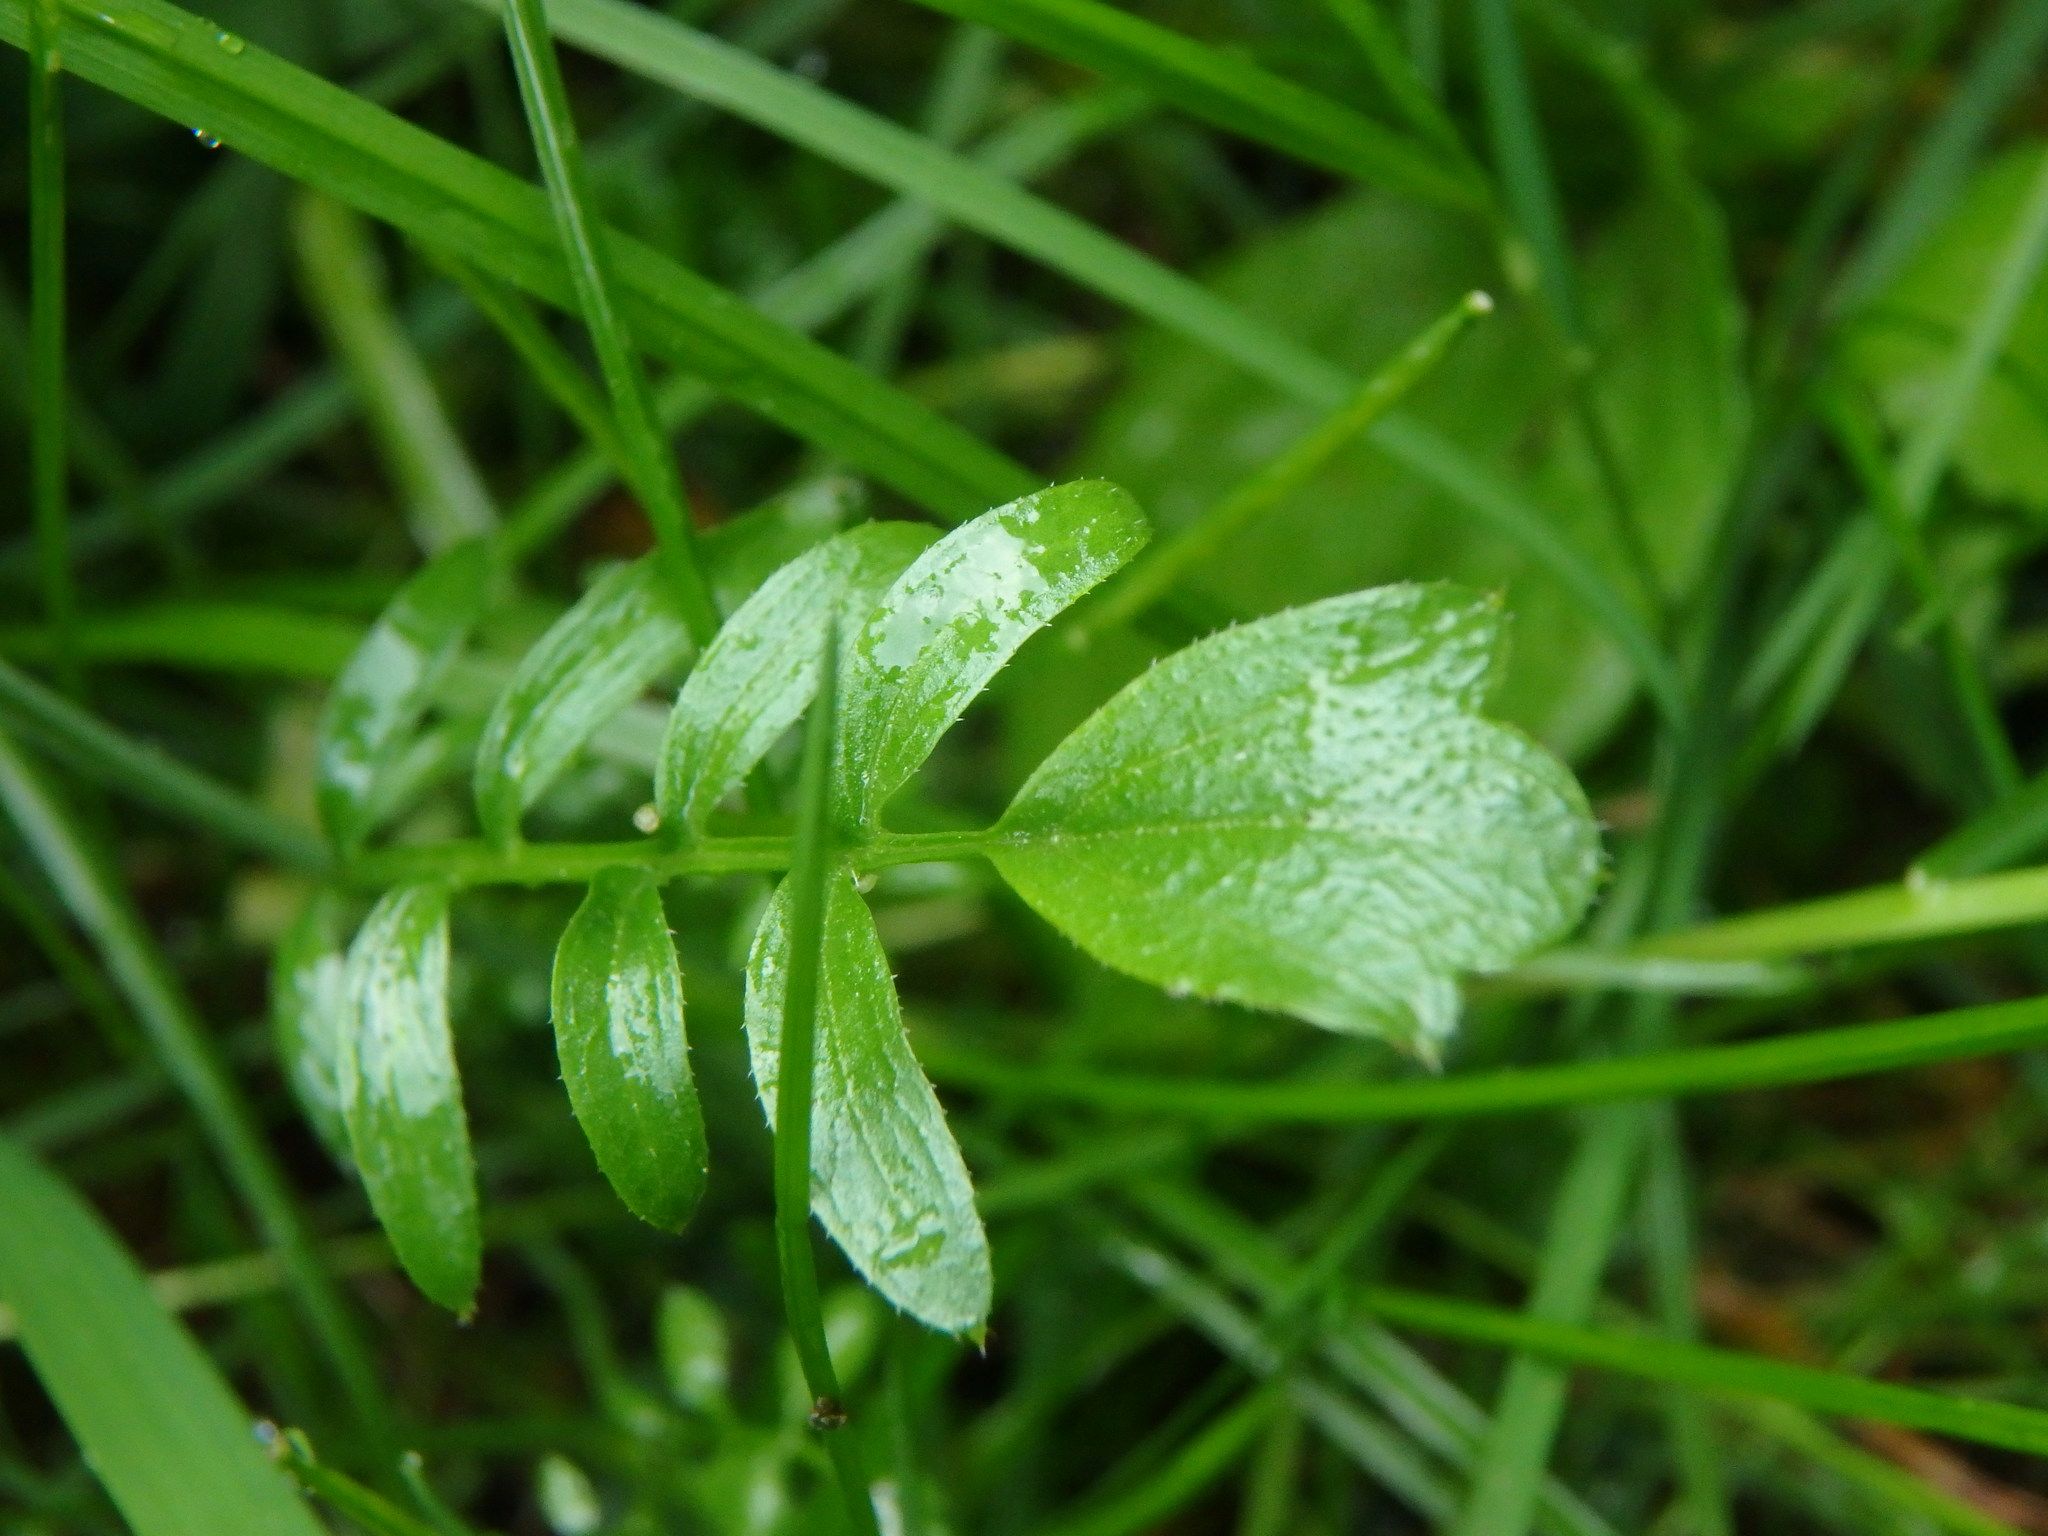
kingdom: Plantae
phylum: Tracheophyta
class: Magnoliopsida
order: Brassicales
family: Brassicaceae
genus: Cardamine
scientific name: Cardamine pratensis
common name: Cuckoo flower
